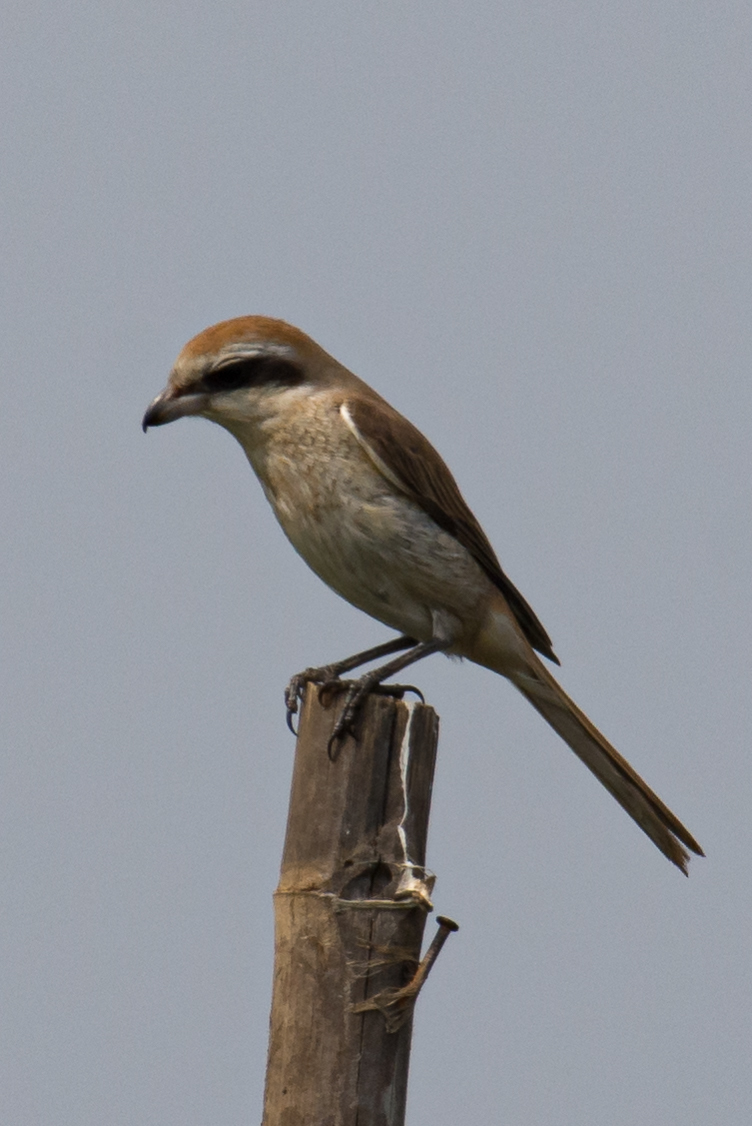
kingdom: Animalia
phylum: Chordata
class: Aves
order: Passeriformes
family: Laniidae
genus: Lanius
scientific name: Lanius cristatus
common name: Brown shrike
